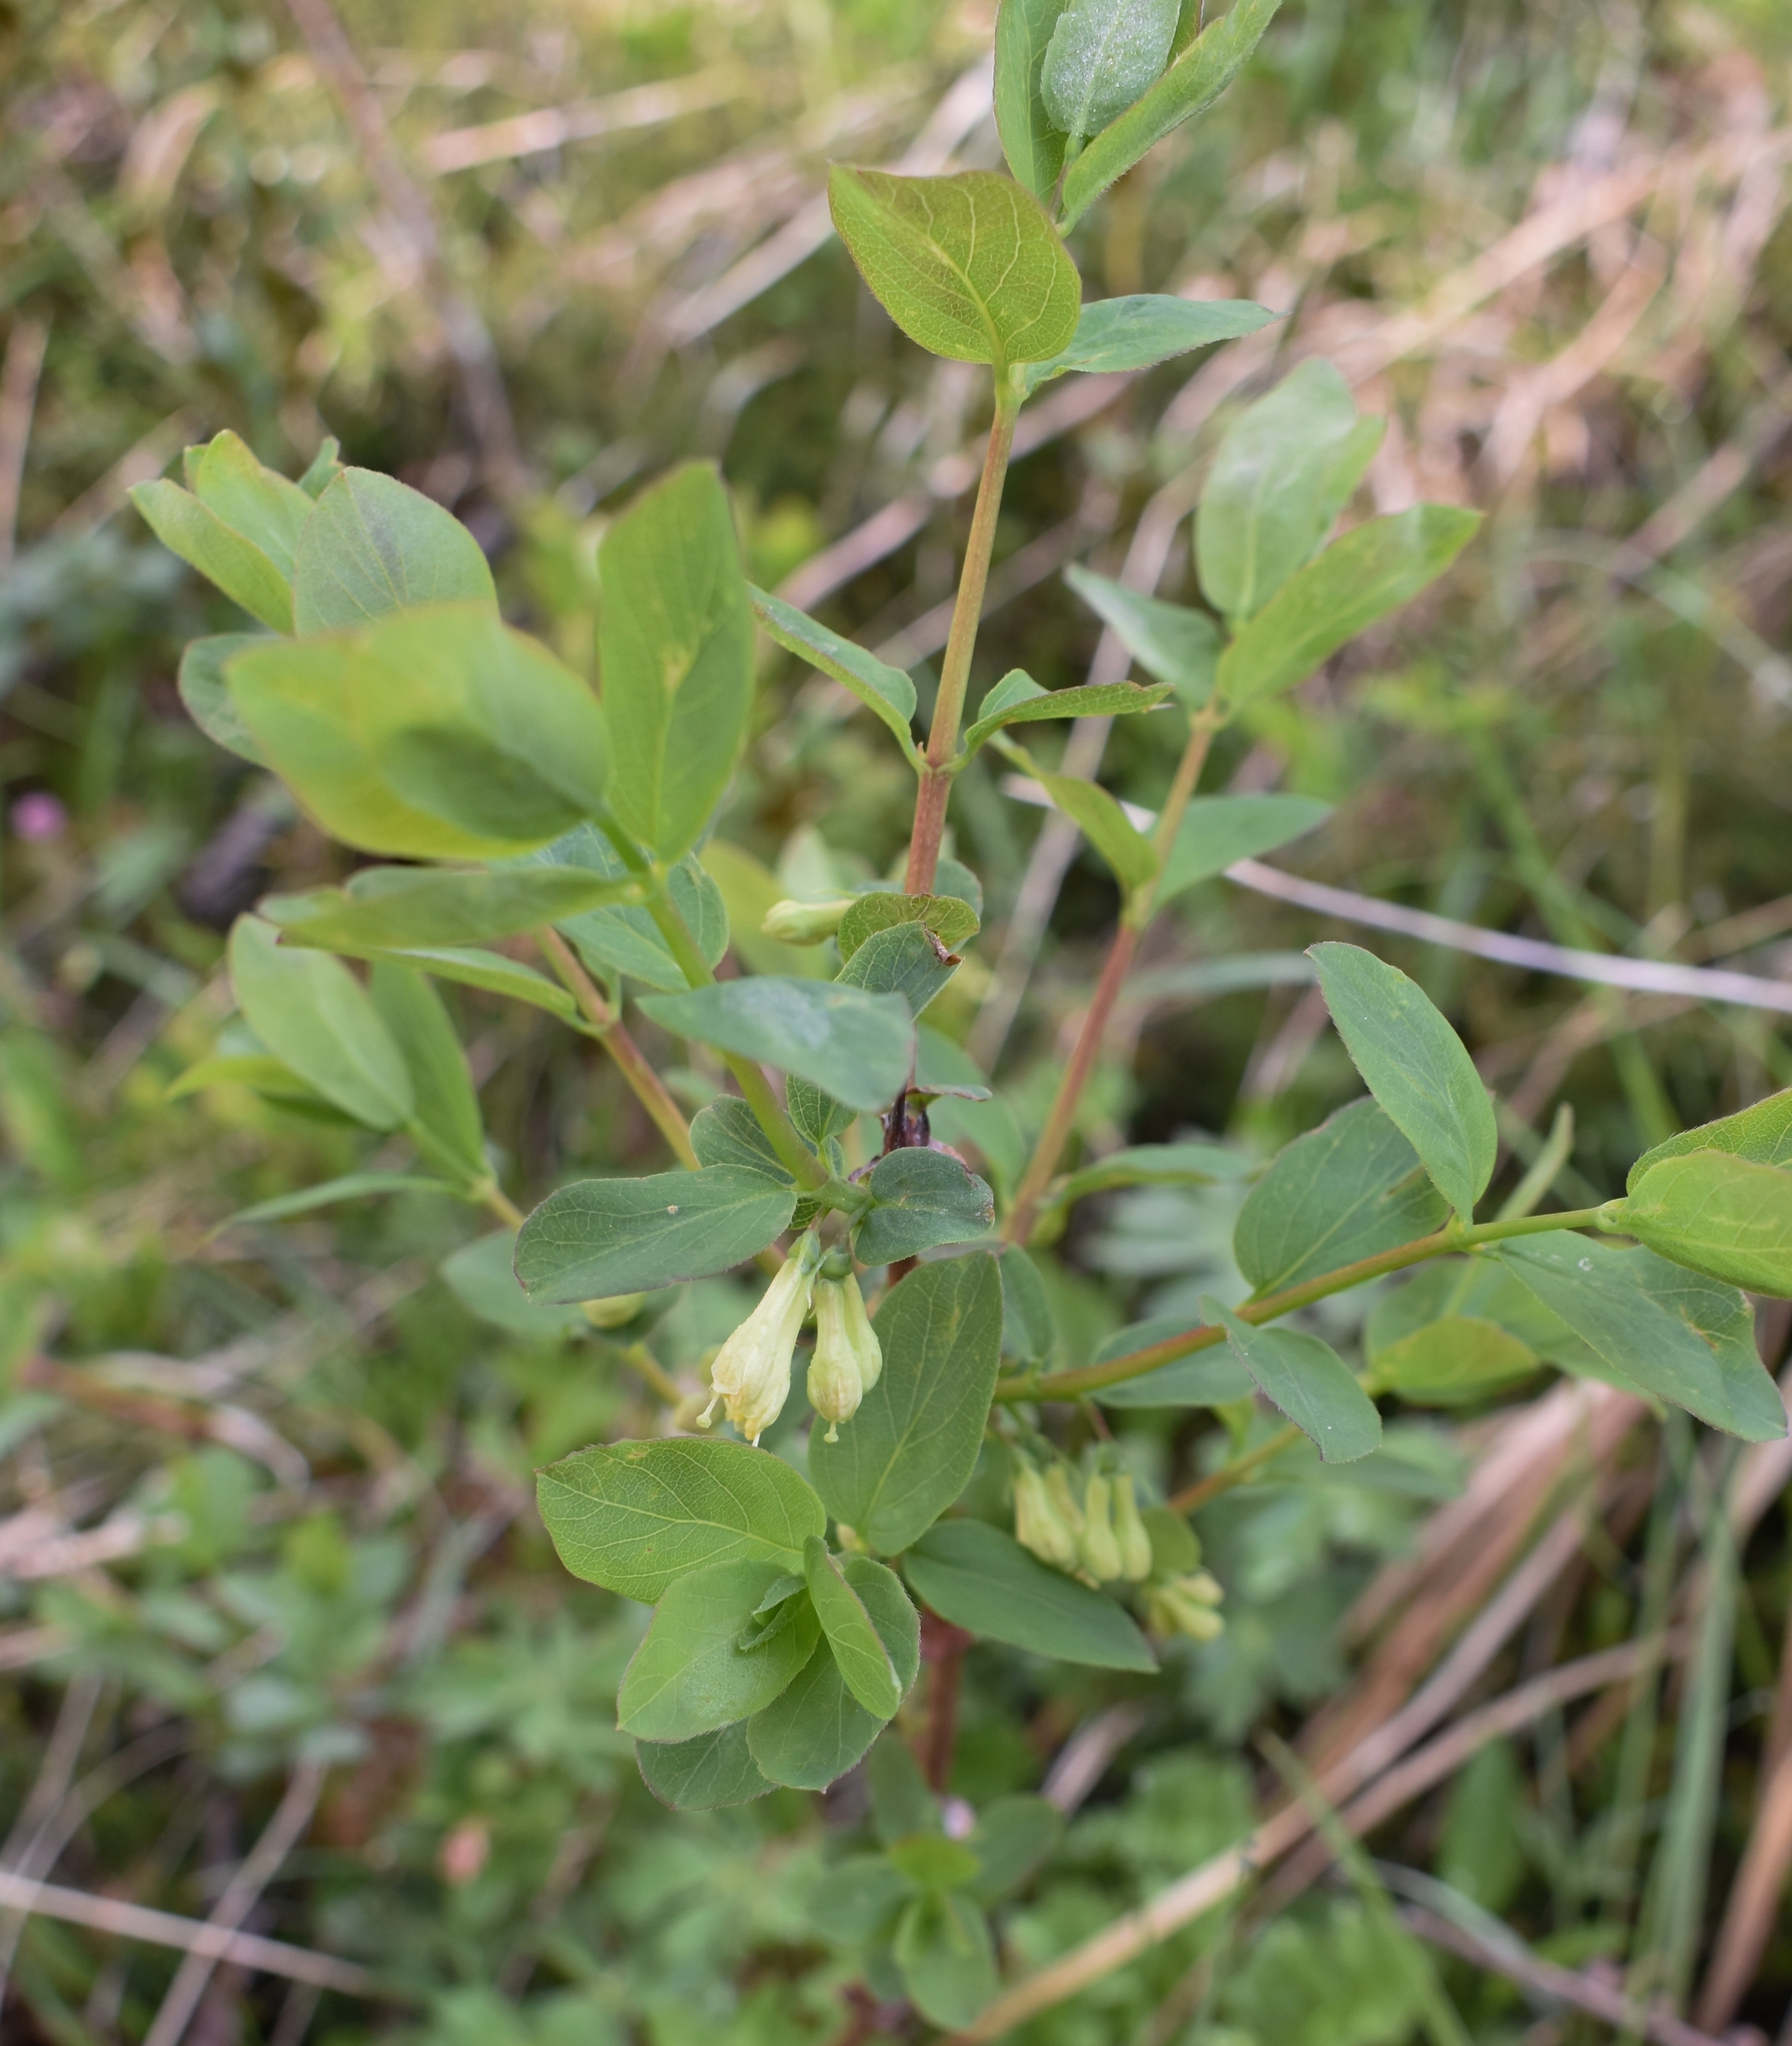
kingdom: Plantae
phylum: Tracheophyta
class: Magnoliopsida
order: Dipsacales
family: Caprifoliaceae
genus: Lonicera
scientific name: Lonicera caerulea
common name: Blue honeysuckle
